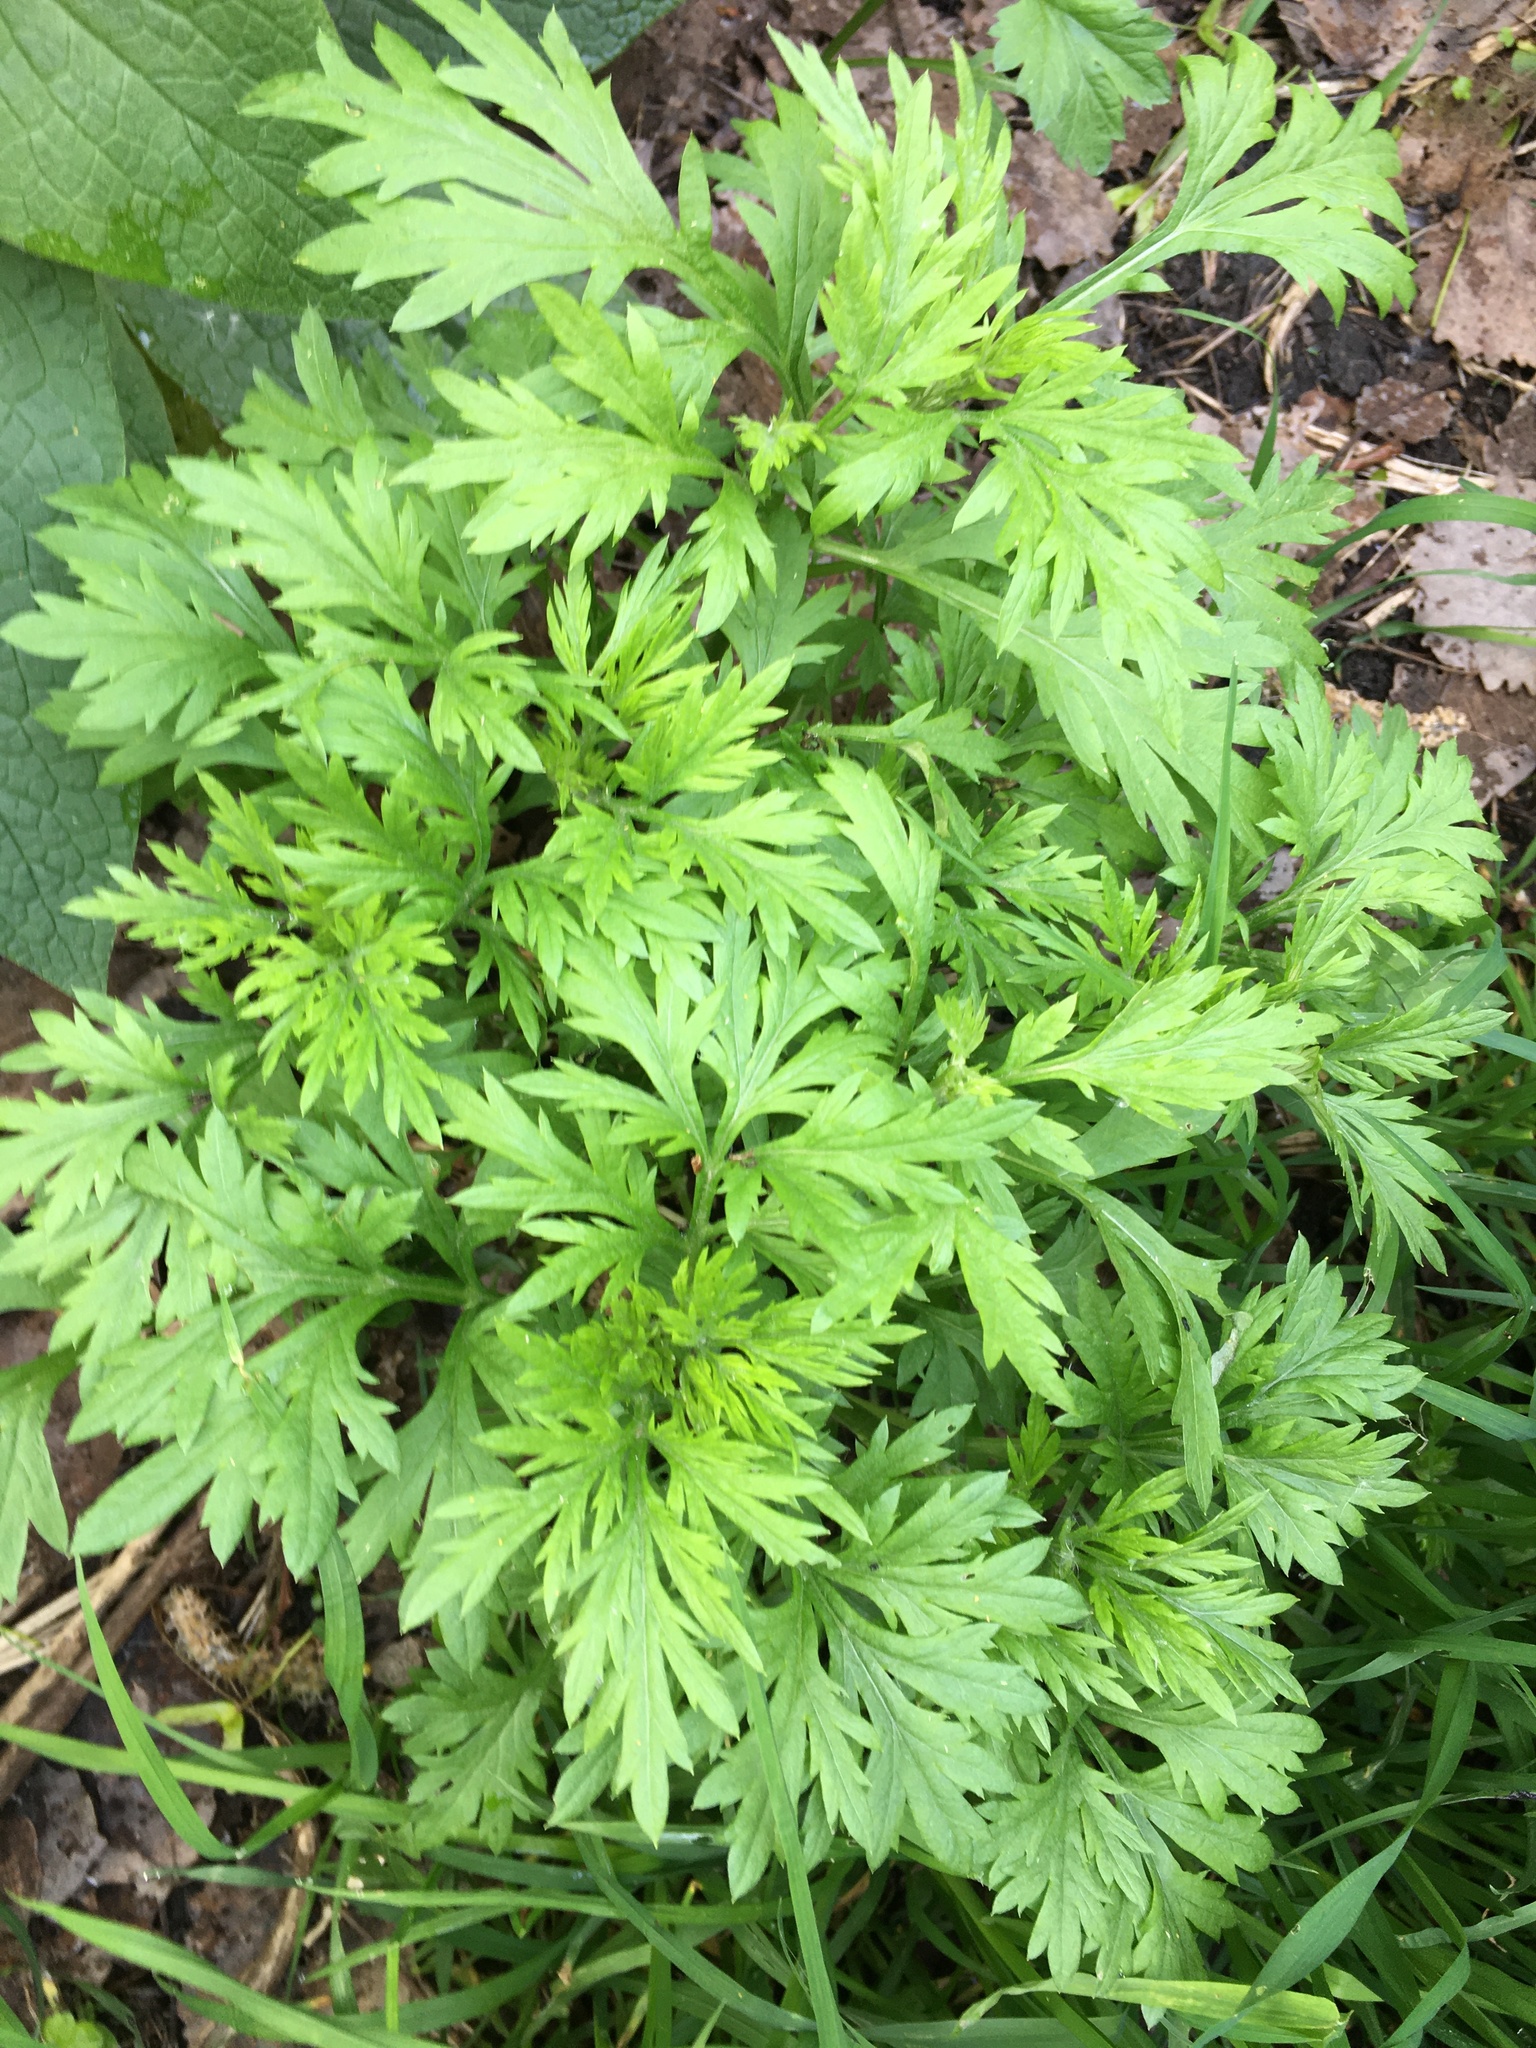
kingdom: Plantae
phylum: Tracheophyta
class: Magnoliopsida
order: Asterales
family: Asteraceae
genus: Artemisia
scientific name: Artemisia vulgaris
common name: Mugwort
